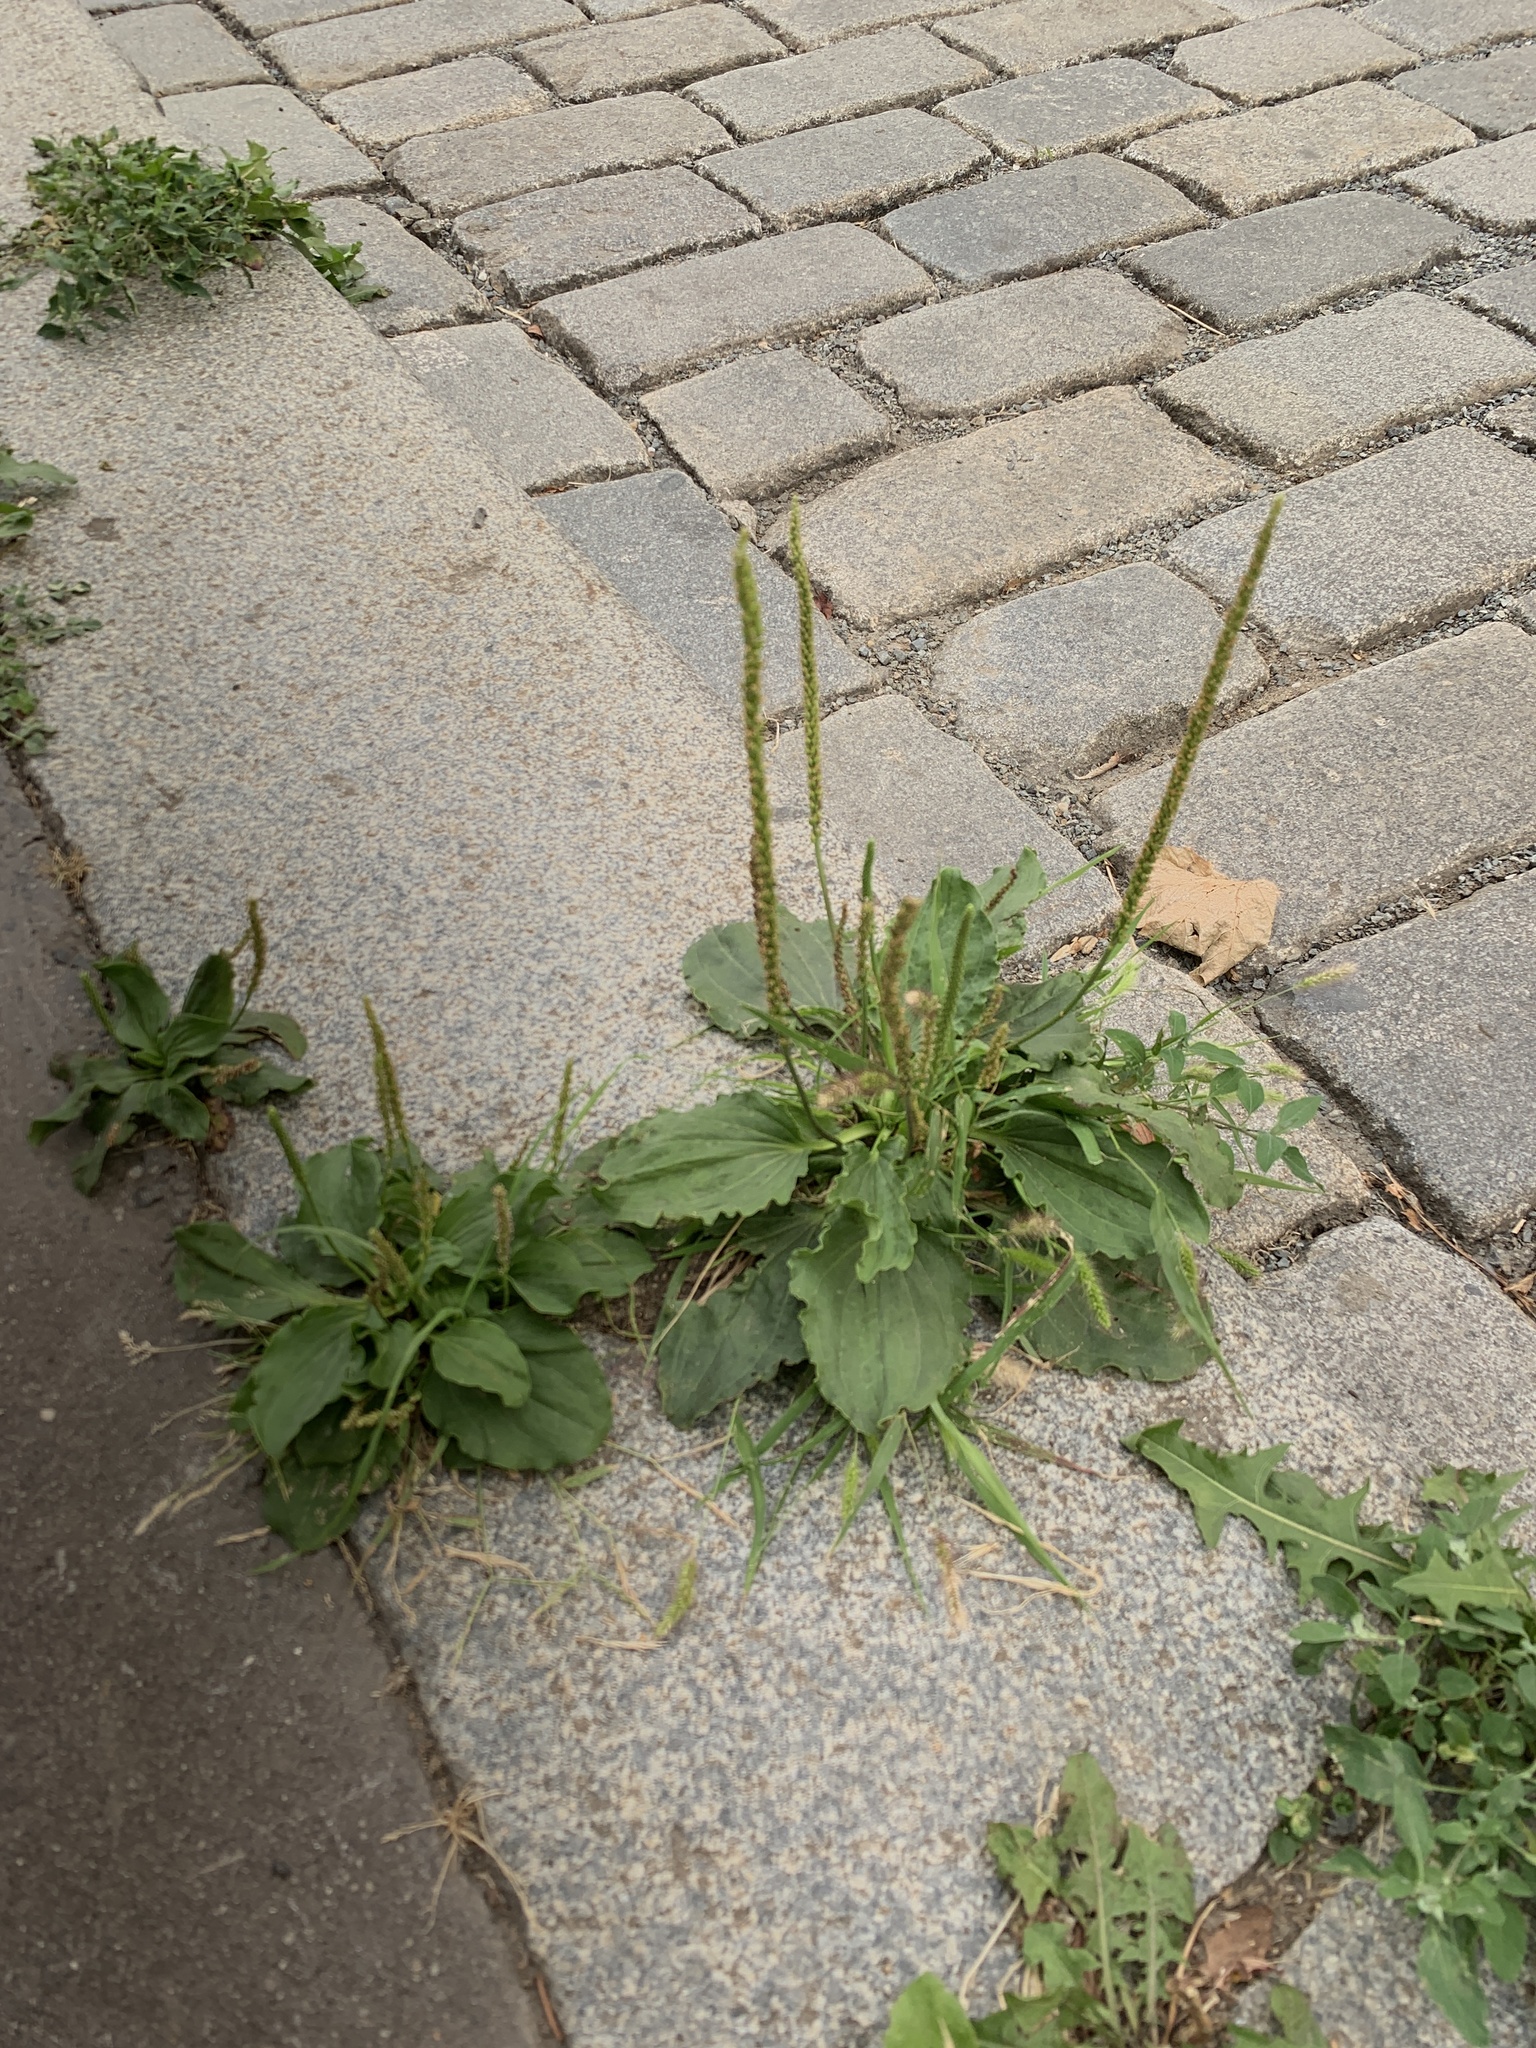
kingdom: Plantae
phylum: Tracheophyta
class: Magnoliopsida
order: Lamiales
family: Plantaginaceae
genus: Plantago
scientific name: Plantago major
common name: Common plantain
